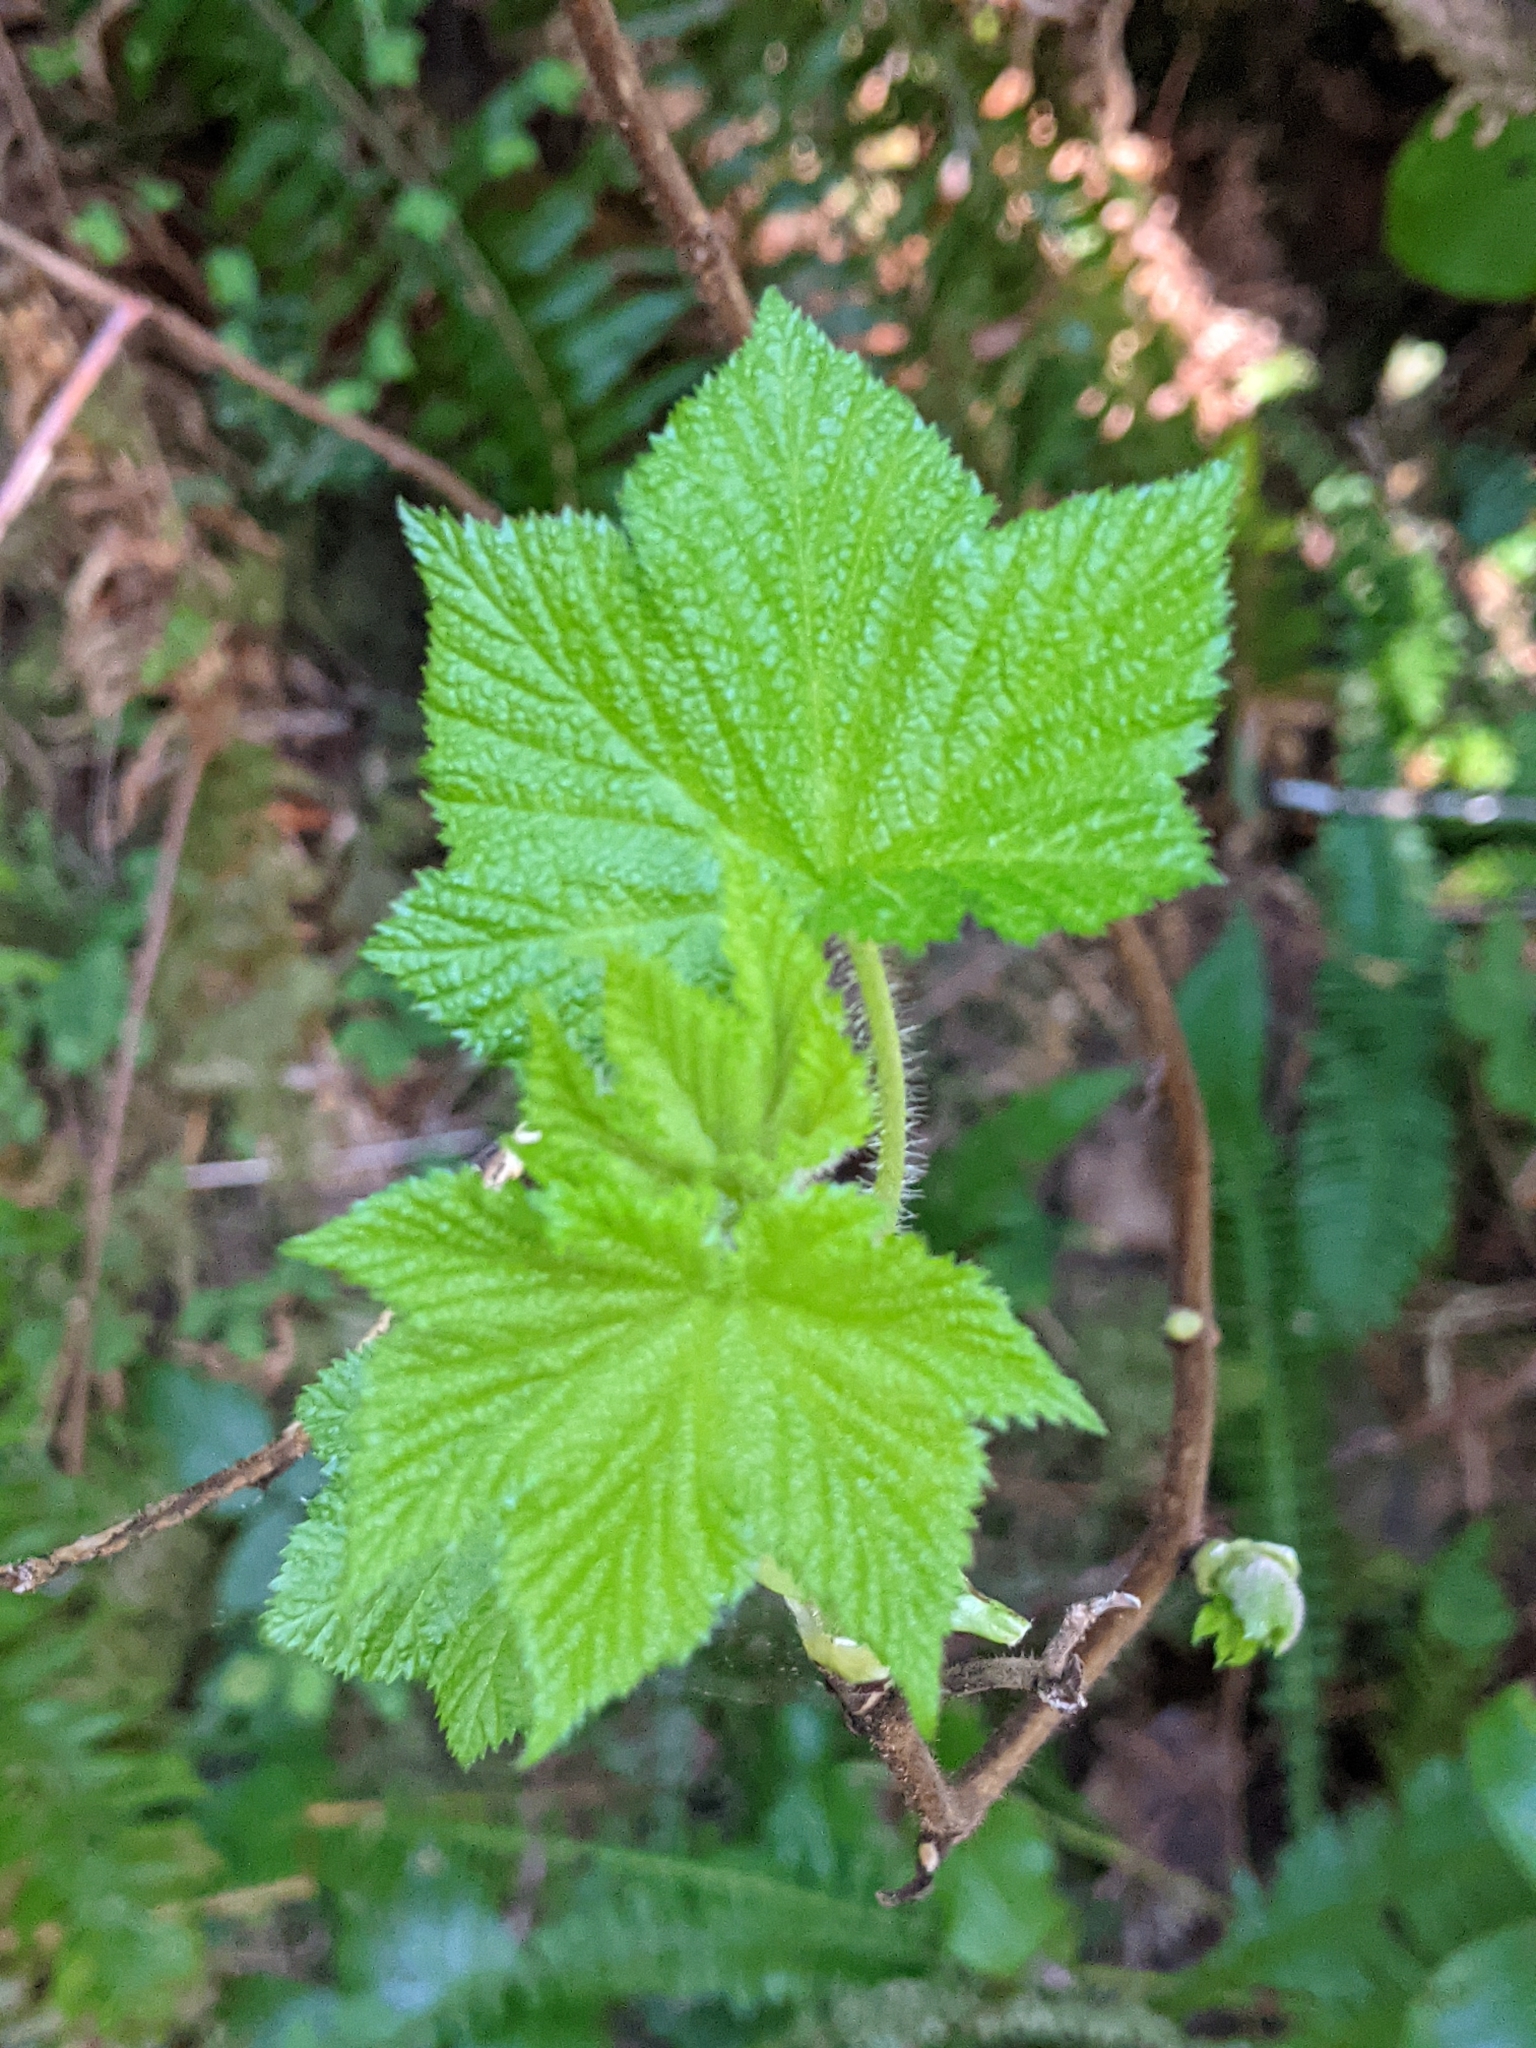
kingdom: Plantae
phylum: Tracheophyta
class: Magnoliopsida
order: Rosales
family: Rosaceae
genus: Rubus
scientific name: Rubus parviflorus
